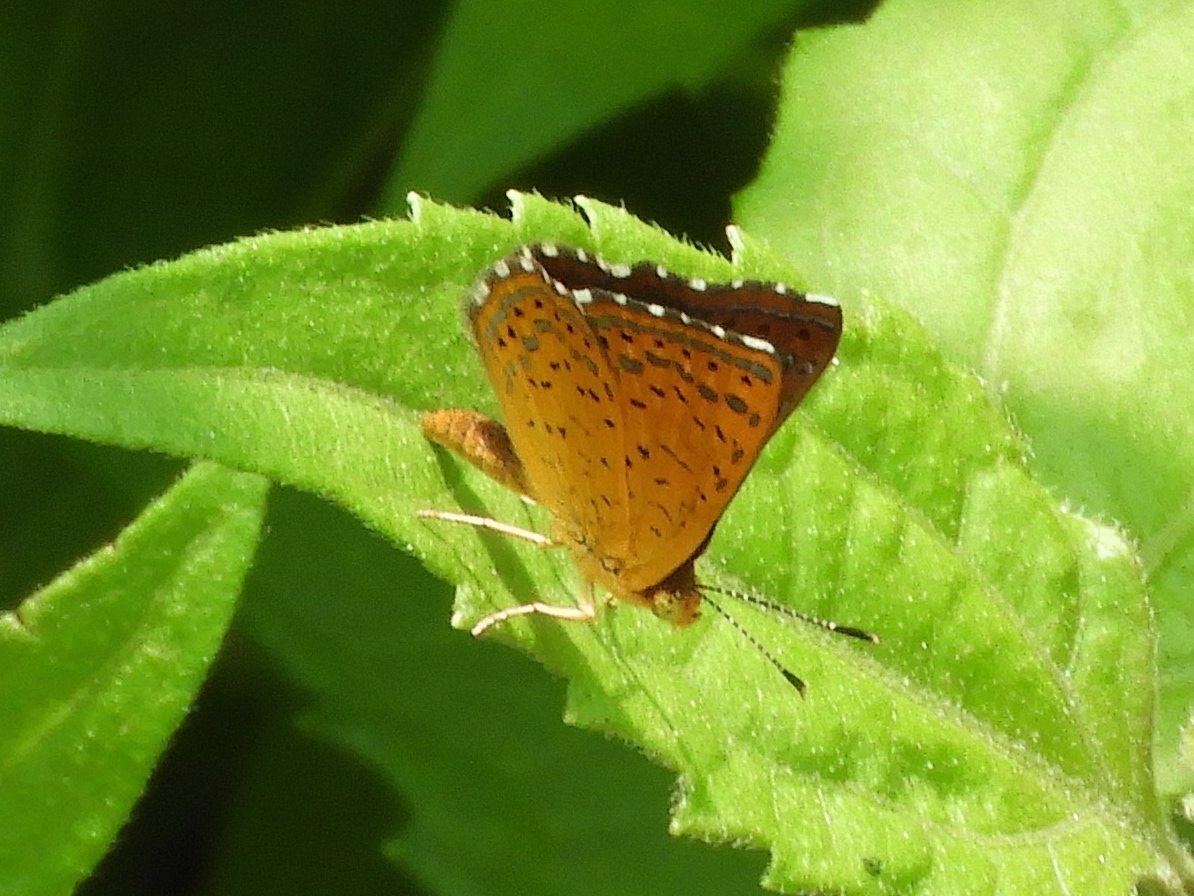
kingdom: Animalia
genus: Calephelis
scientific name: Calephelis nemesis
